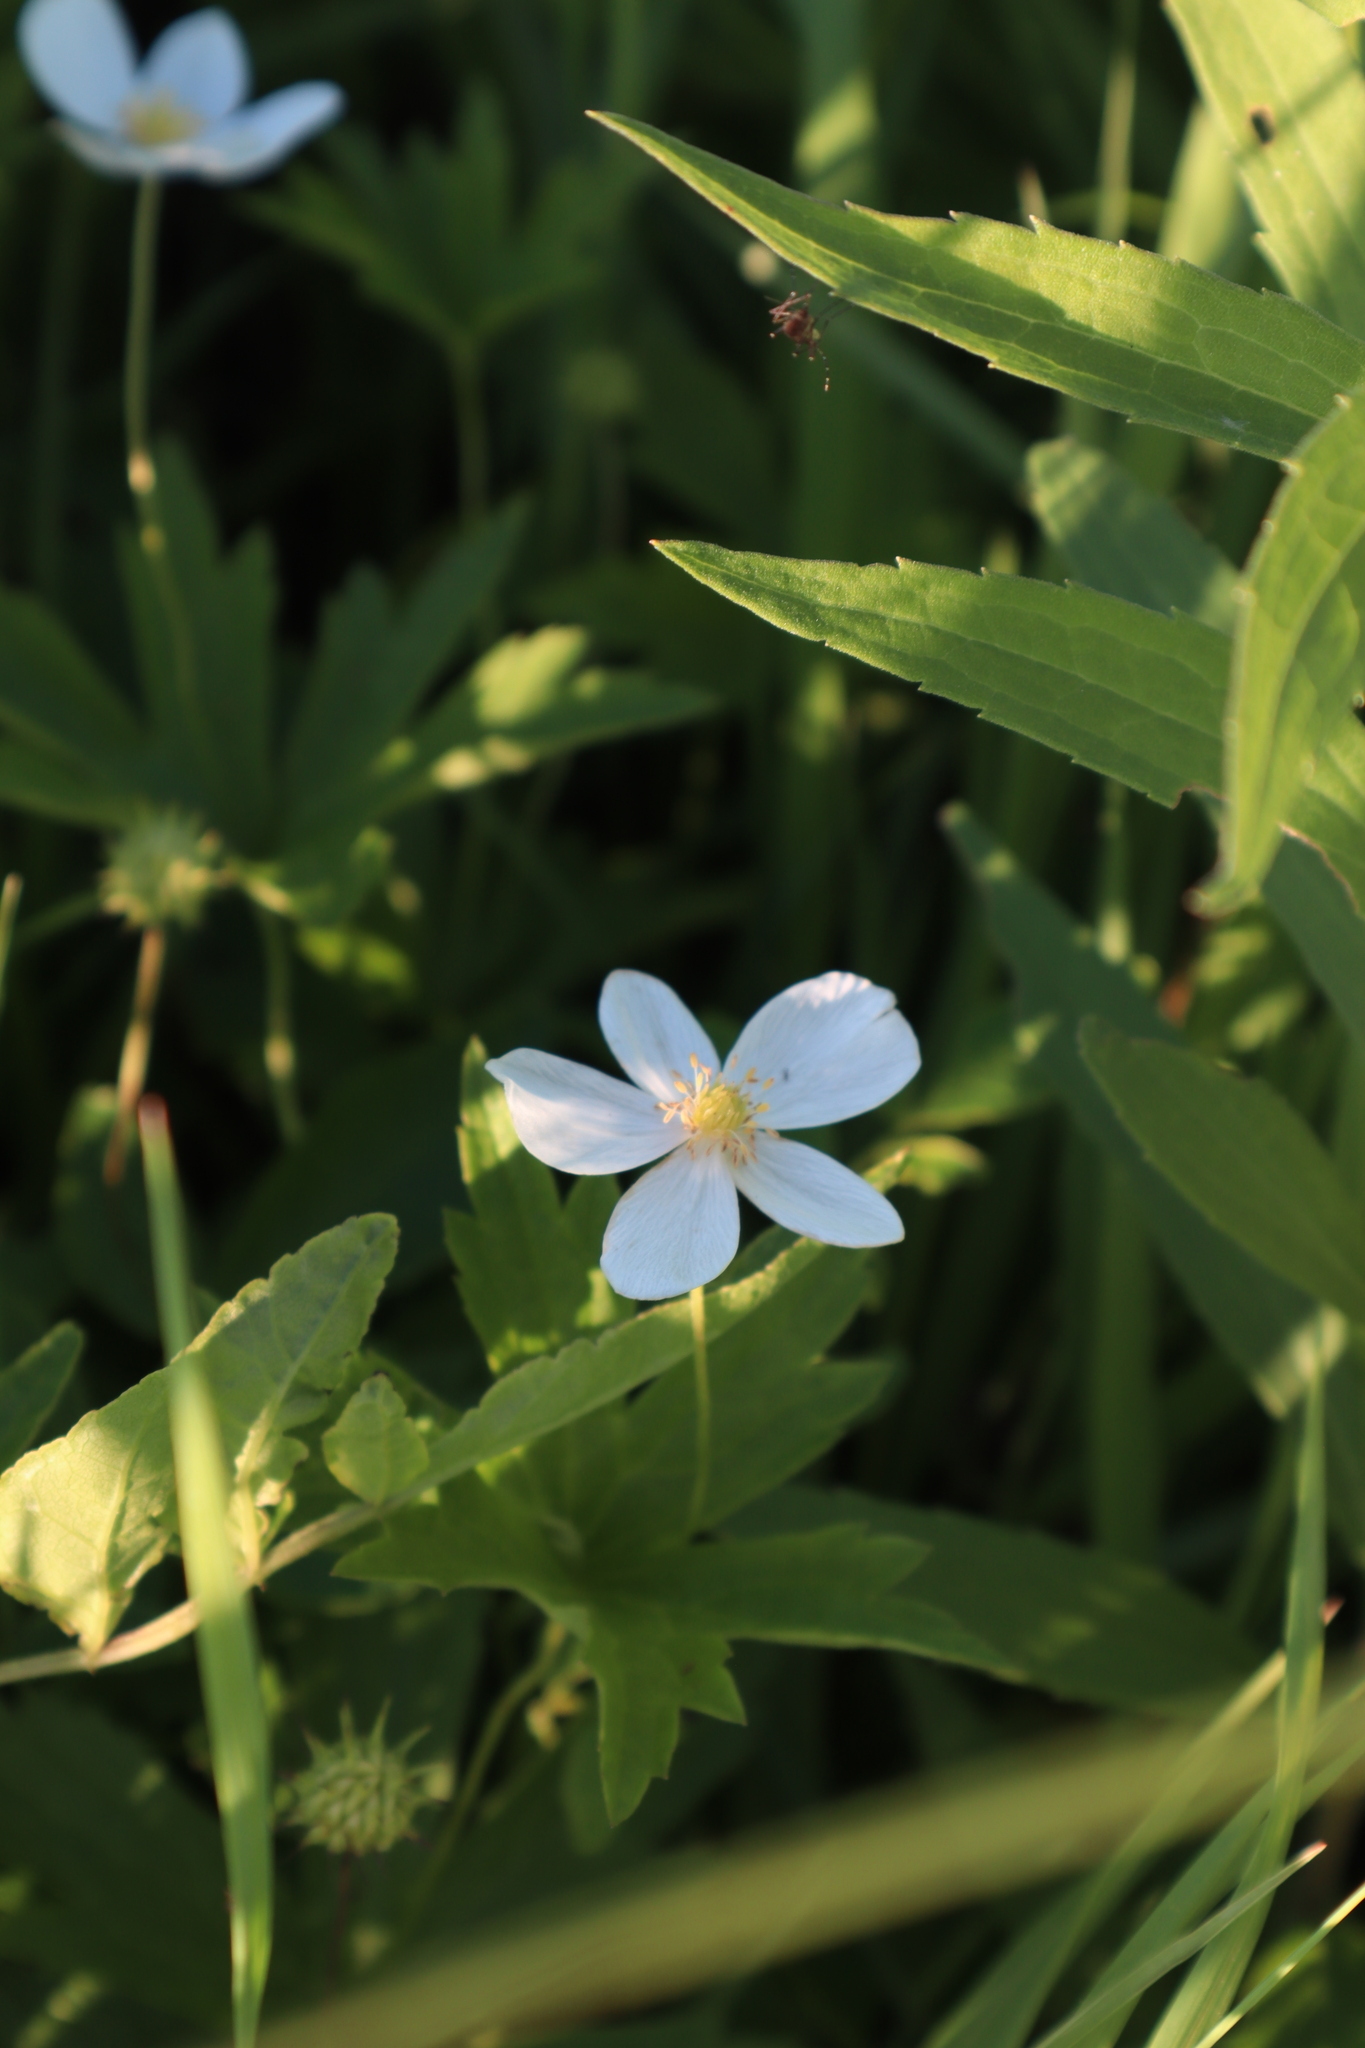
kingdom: Plantae
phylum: Tracheophyta
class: Magnoliopsida
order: Ranunculales
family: Ranunculaceae
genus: Anemonastrum
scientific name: Anemonastrum canadense
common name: Canada anemone
